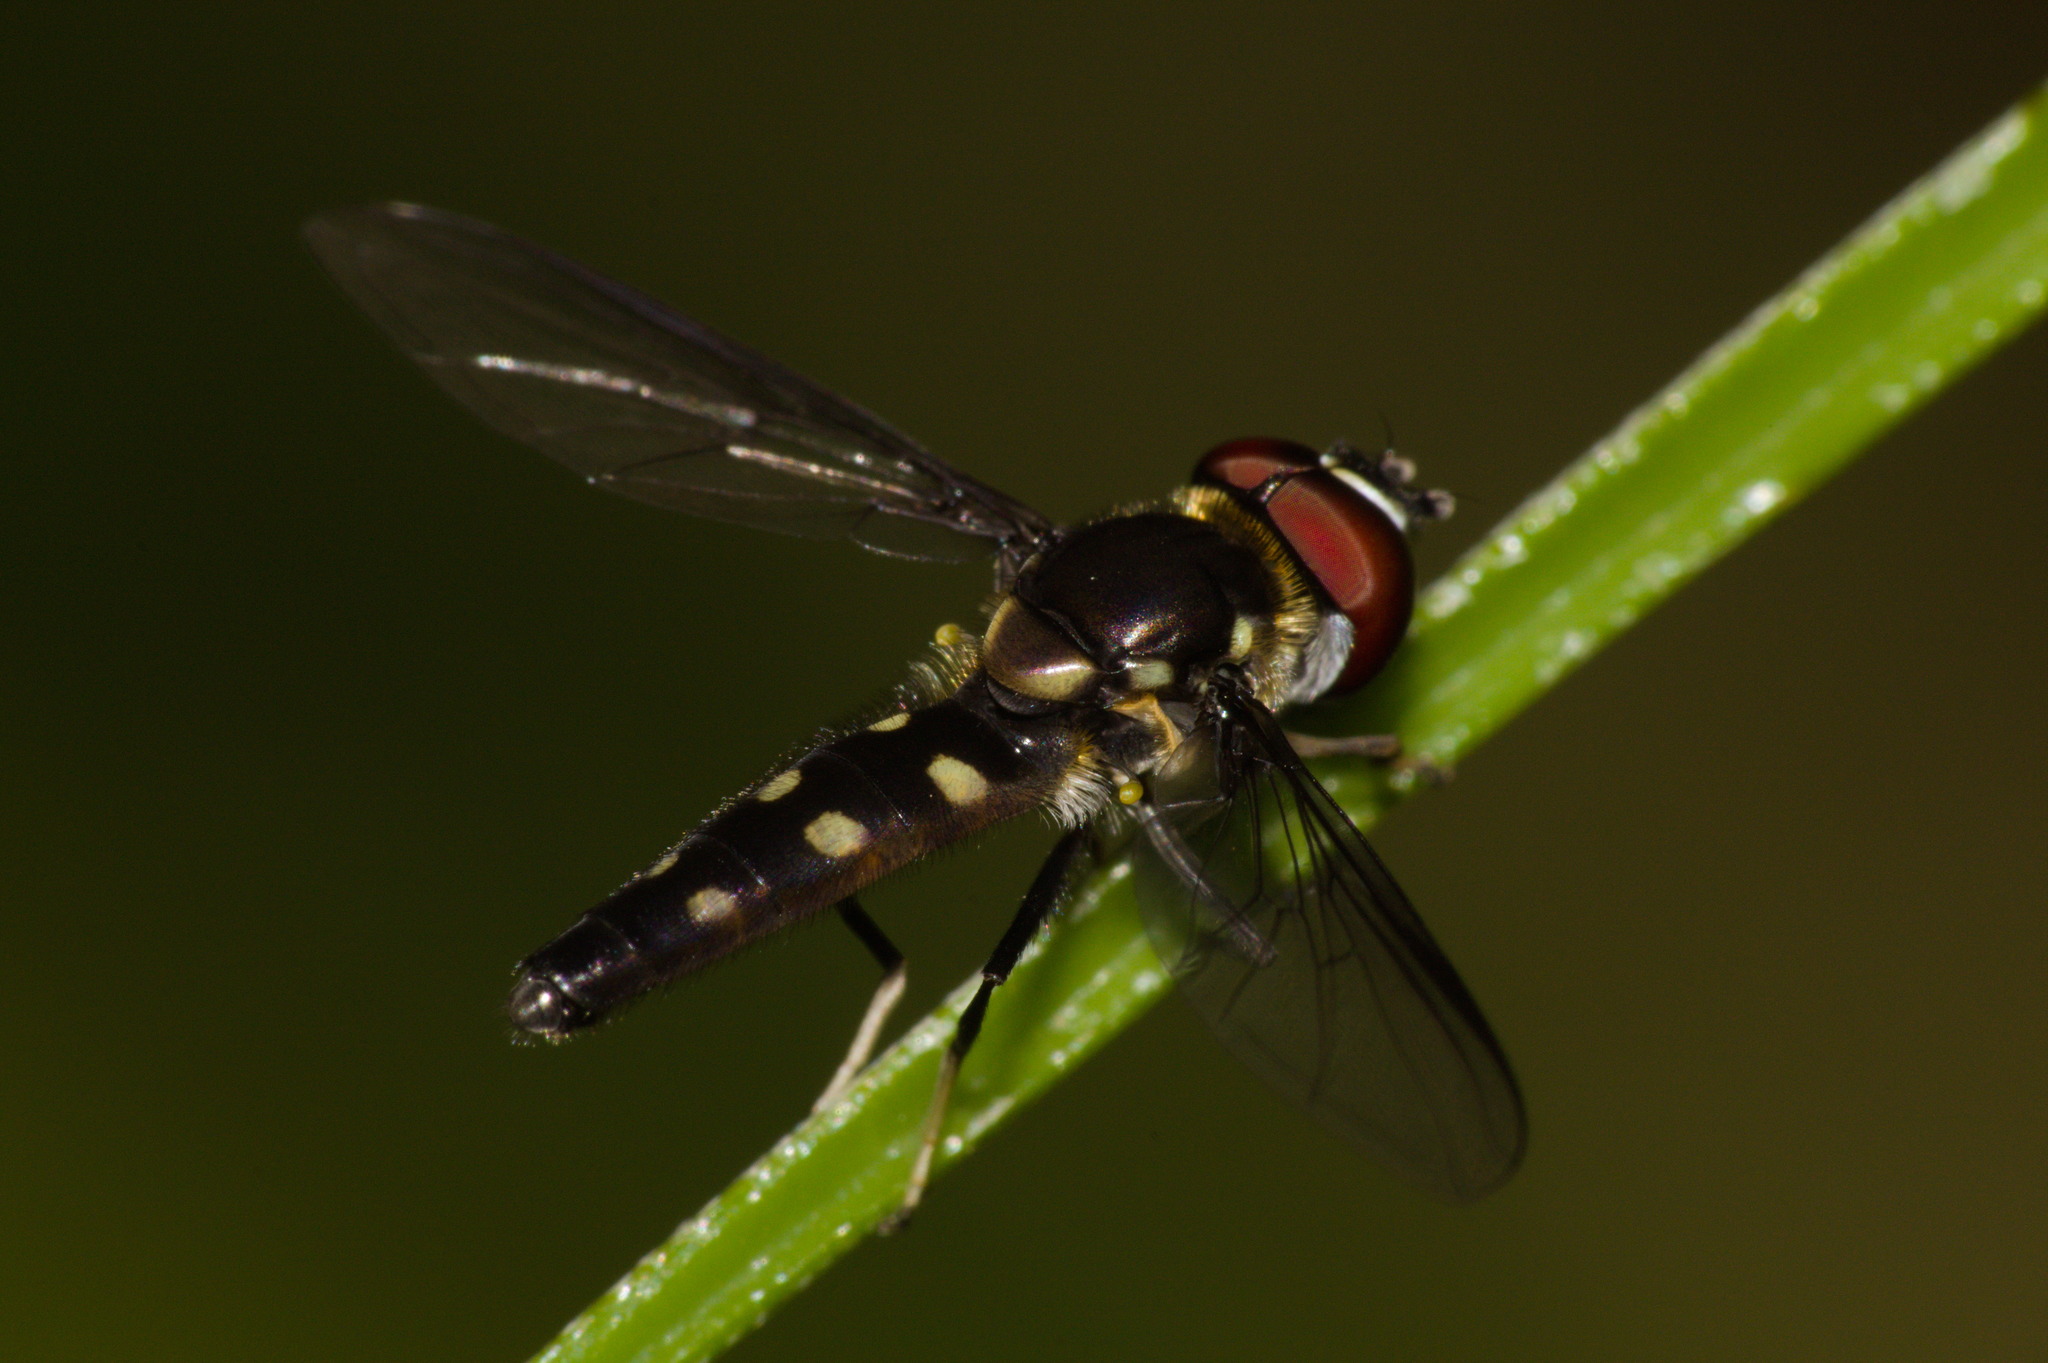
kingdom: Animalia
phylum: Arthropoda
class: Insecta
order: Diptera
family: Syrphidae
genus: Ocyptamus
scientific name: Ocyptamus gastrostactus
